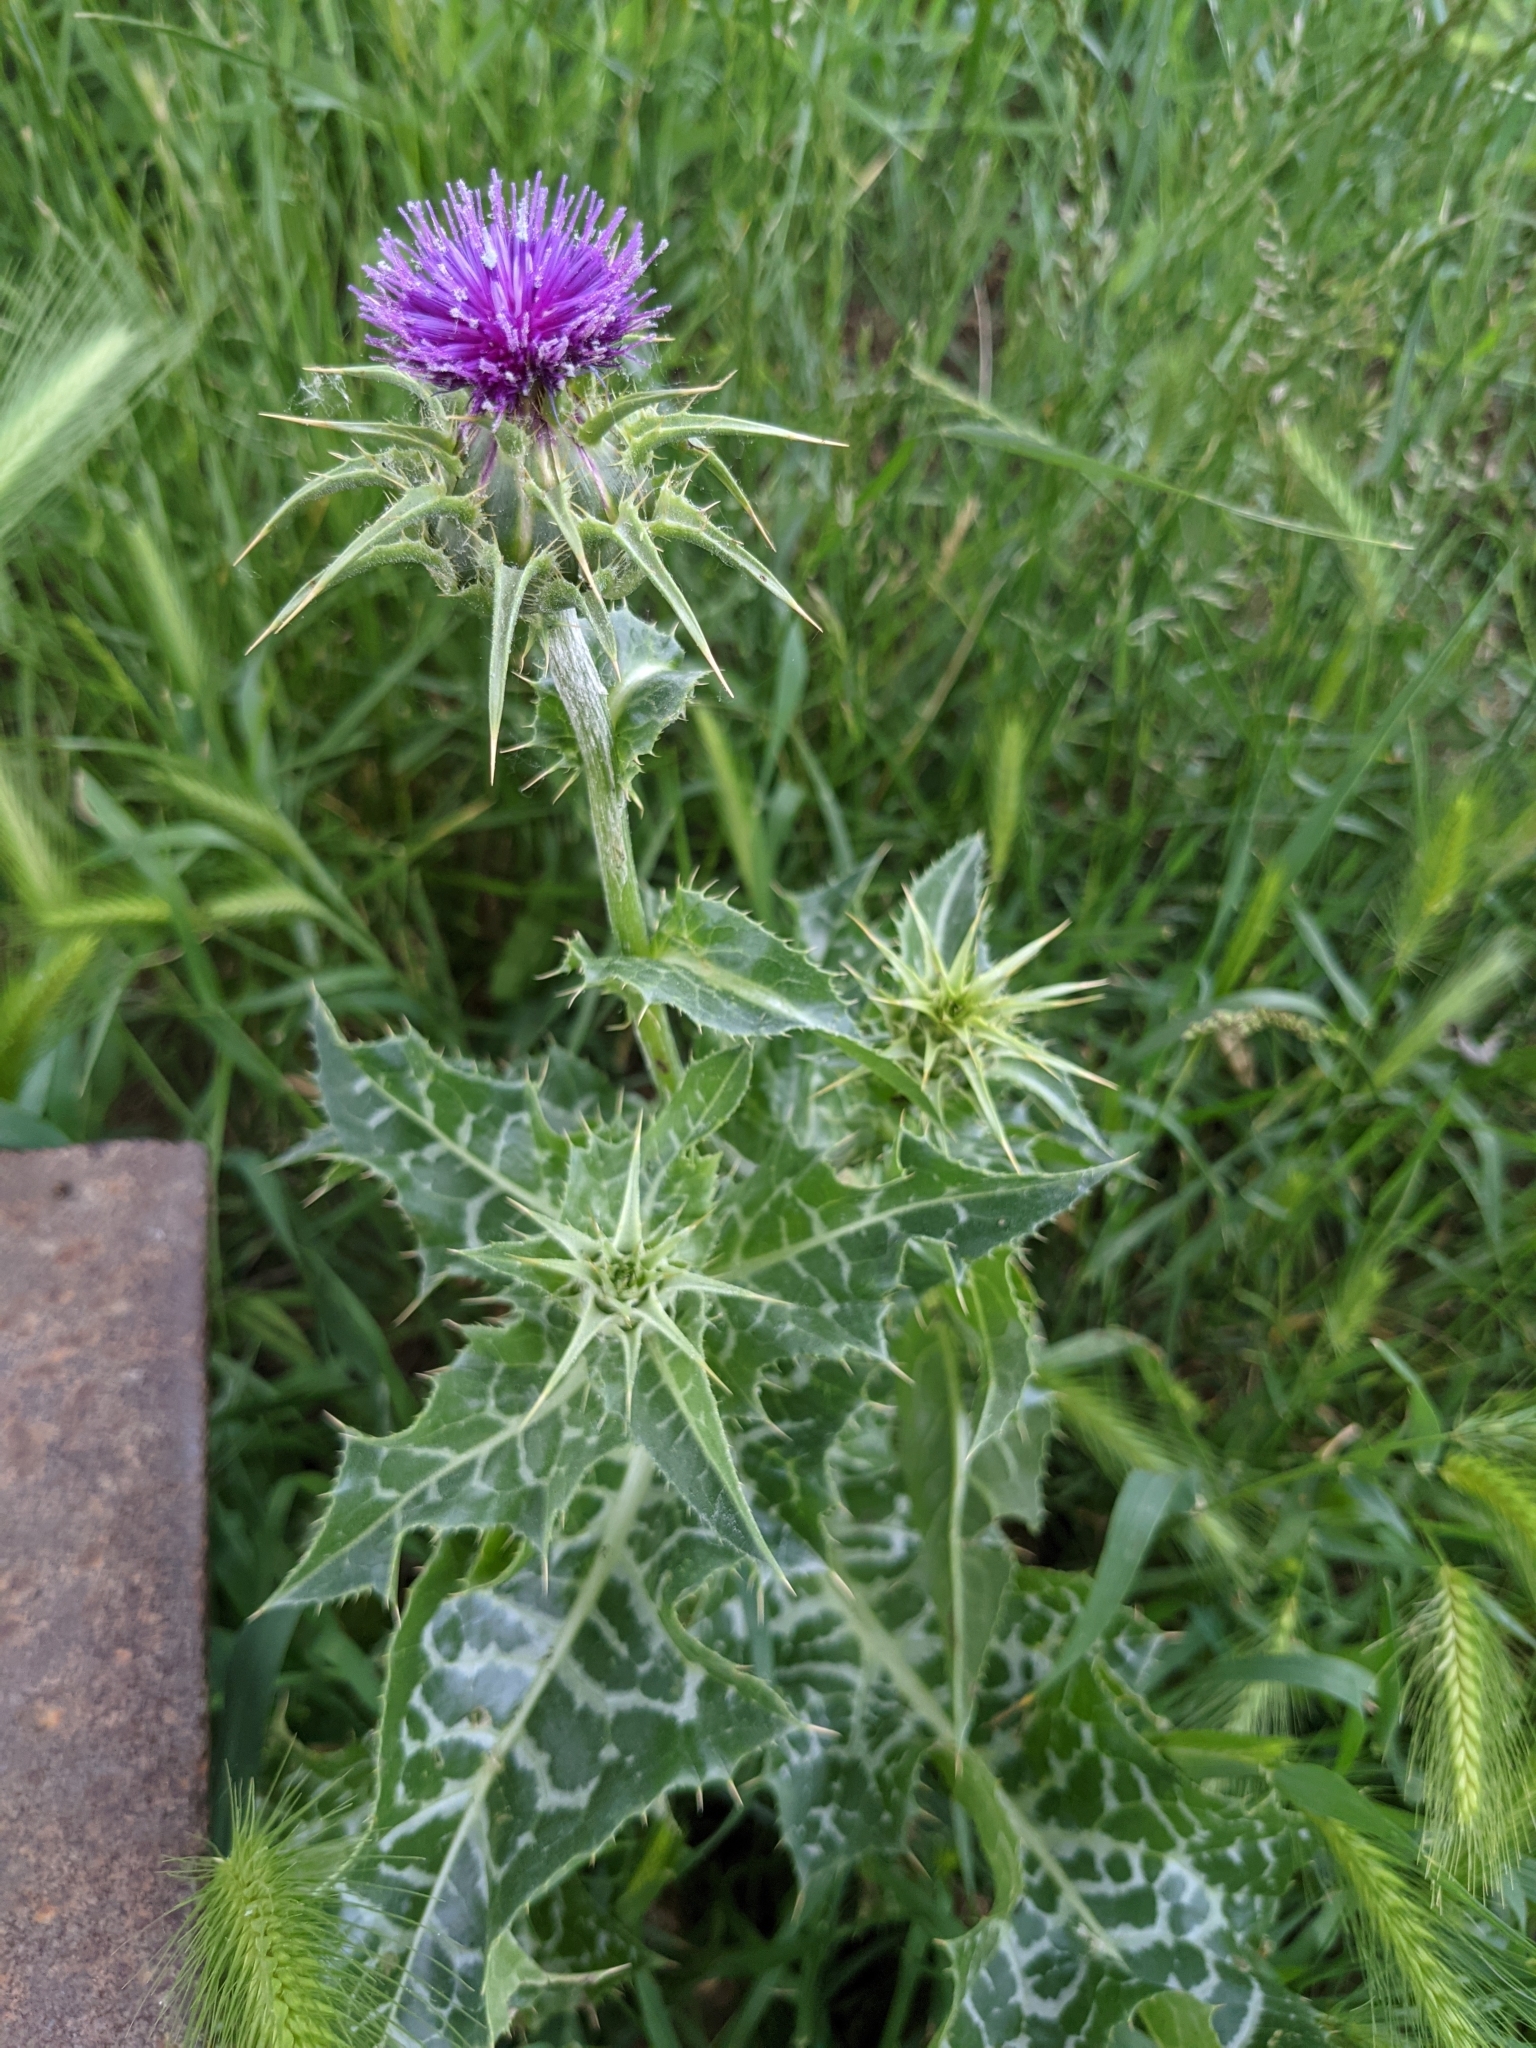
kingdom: Plantae
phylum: Tracheophyta
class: Magnoliopsida
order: Asterales
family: Asteraceae
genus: Silybum
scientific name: Silybum marianum
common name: Milk thistle
